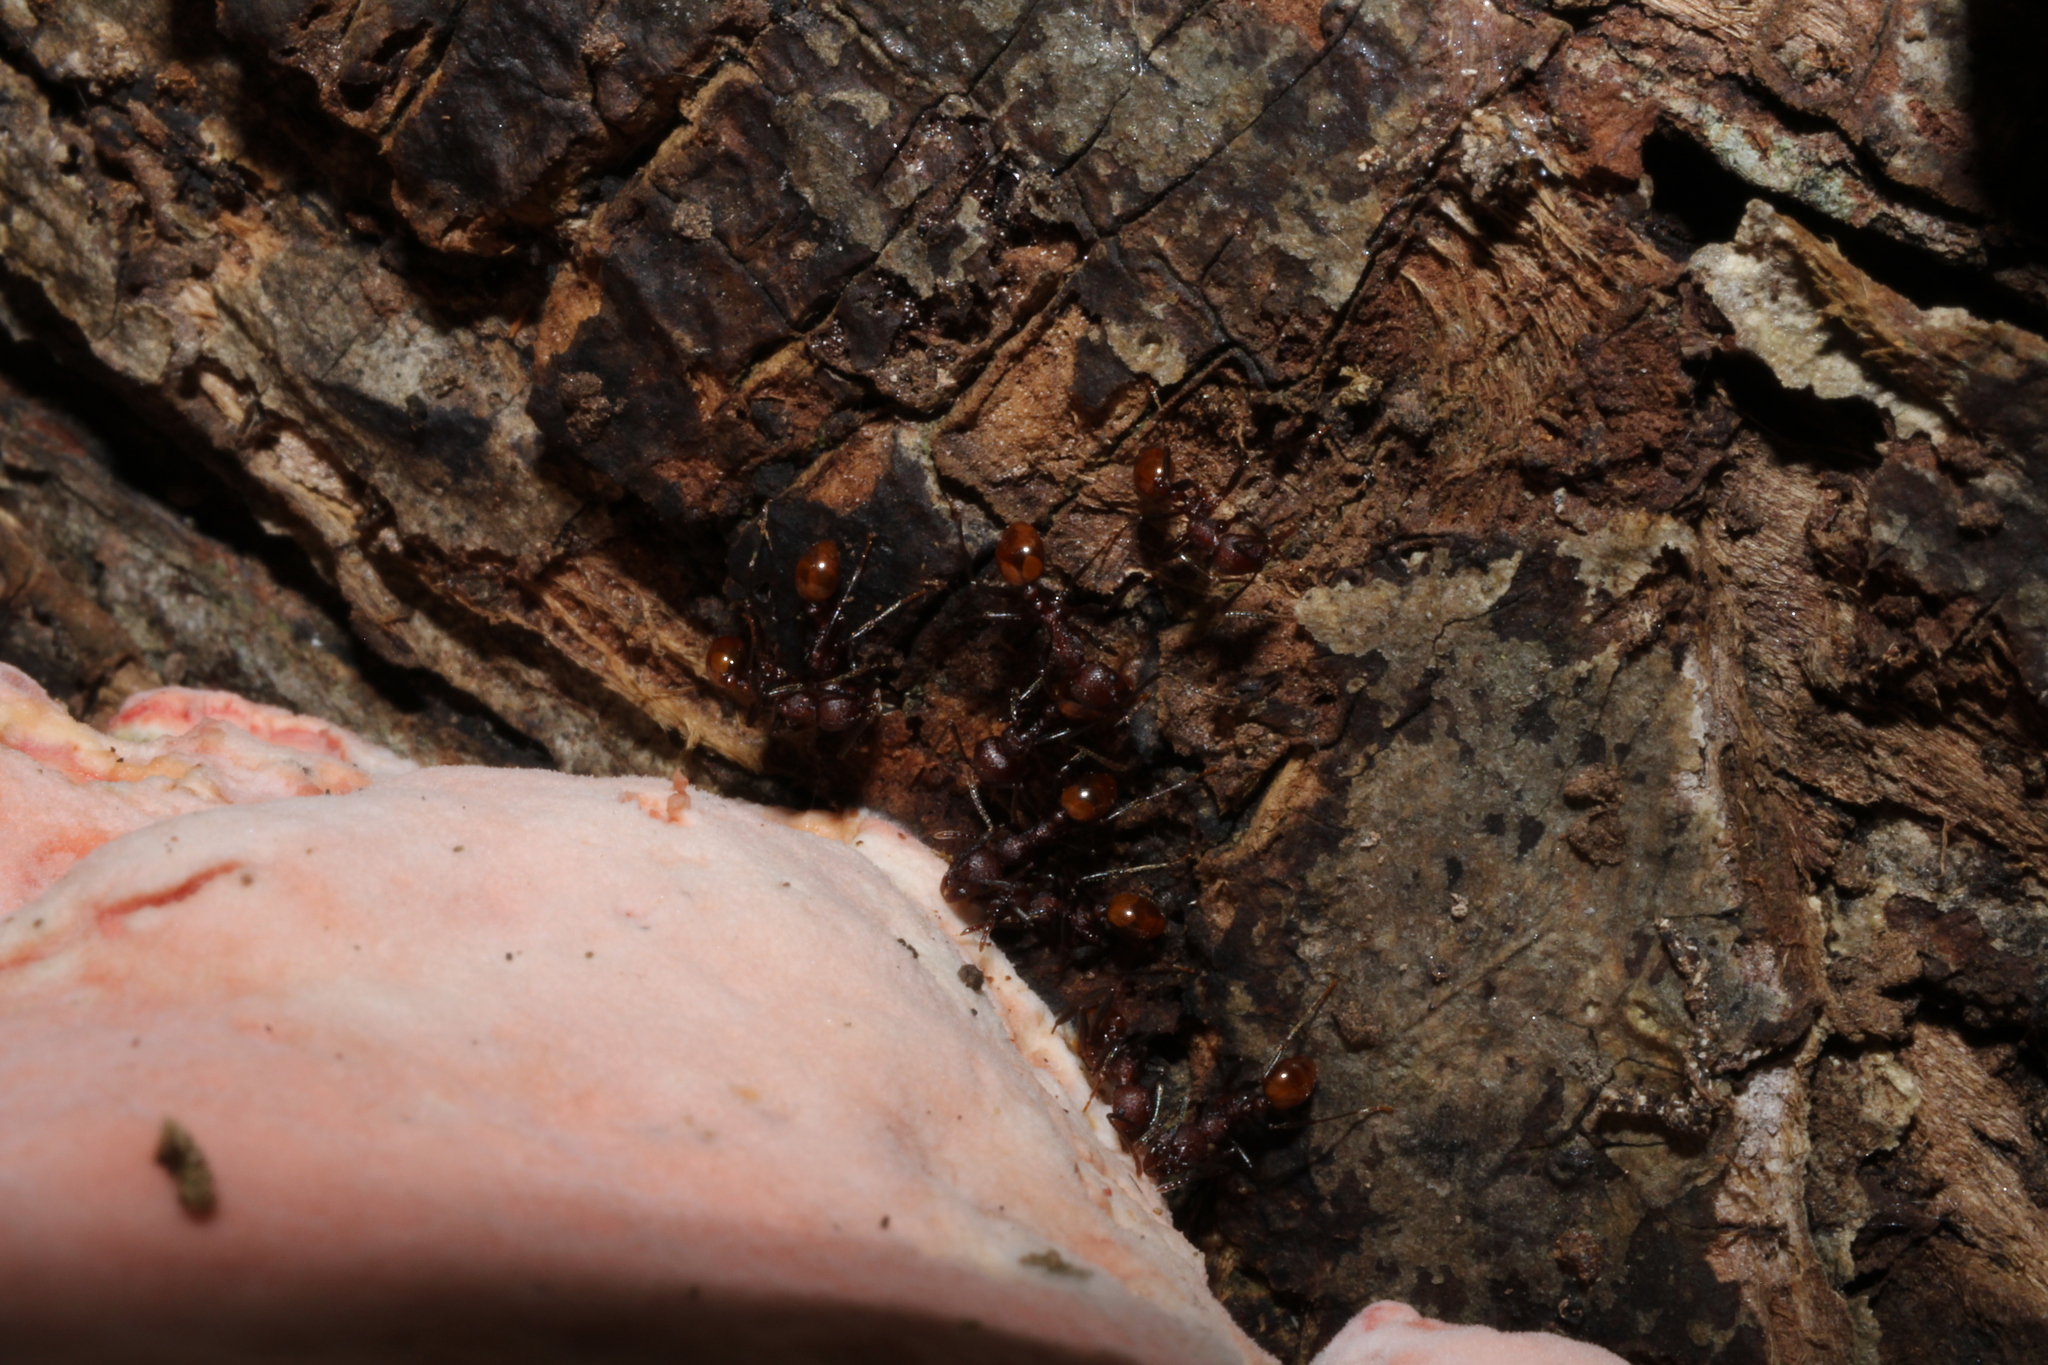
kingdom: Animalia
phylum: Arthropoda
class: Insecta
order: Hymenoptera
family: Formicidae
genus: Aphaenogaster
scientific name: Aphaenogaster tennesseensis
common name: Tennessee thread-waisted ant
